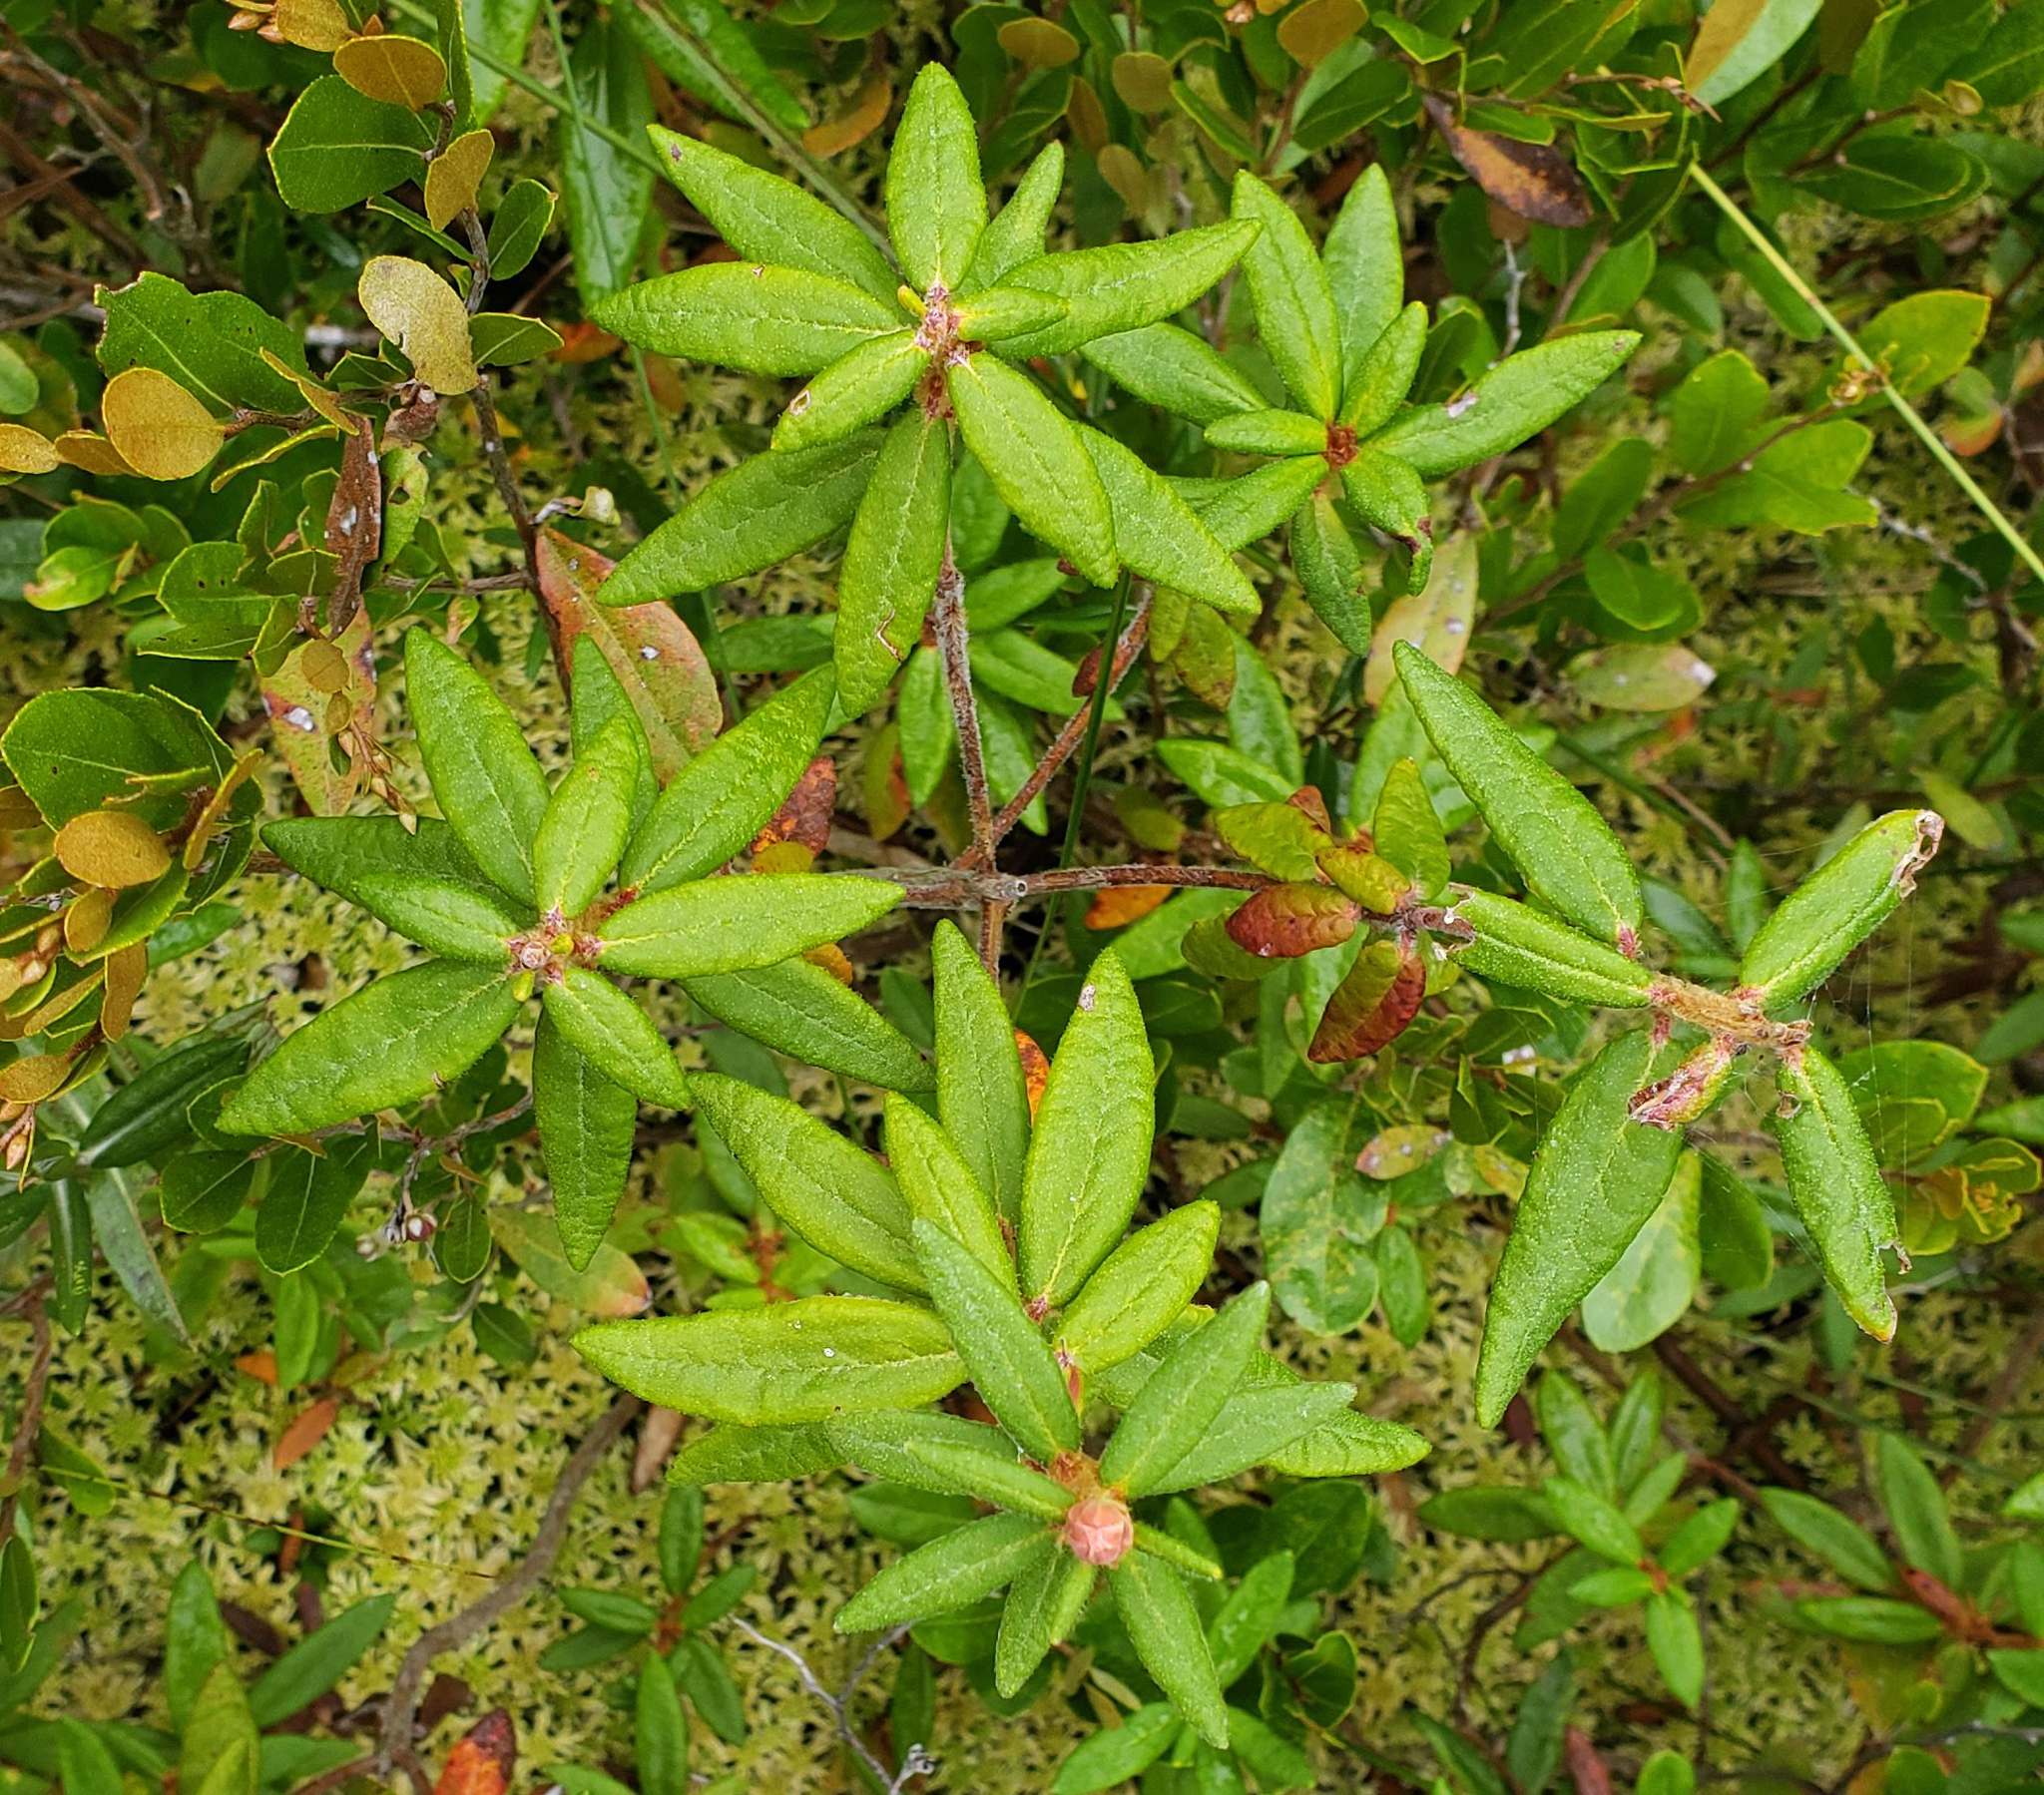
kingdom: Plantae
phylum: Tracheophyta
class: Magnoliopsida
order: Ericales
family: Ericaceae
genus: Rhododendron
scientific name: Rhododendron groenlandicum
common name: Bog labrador tea
